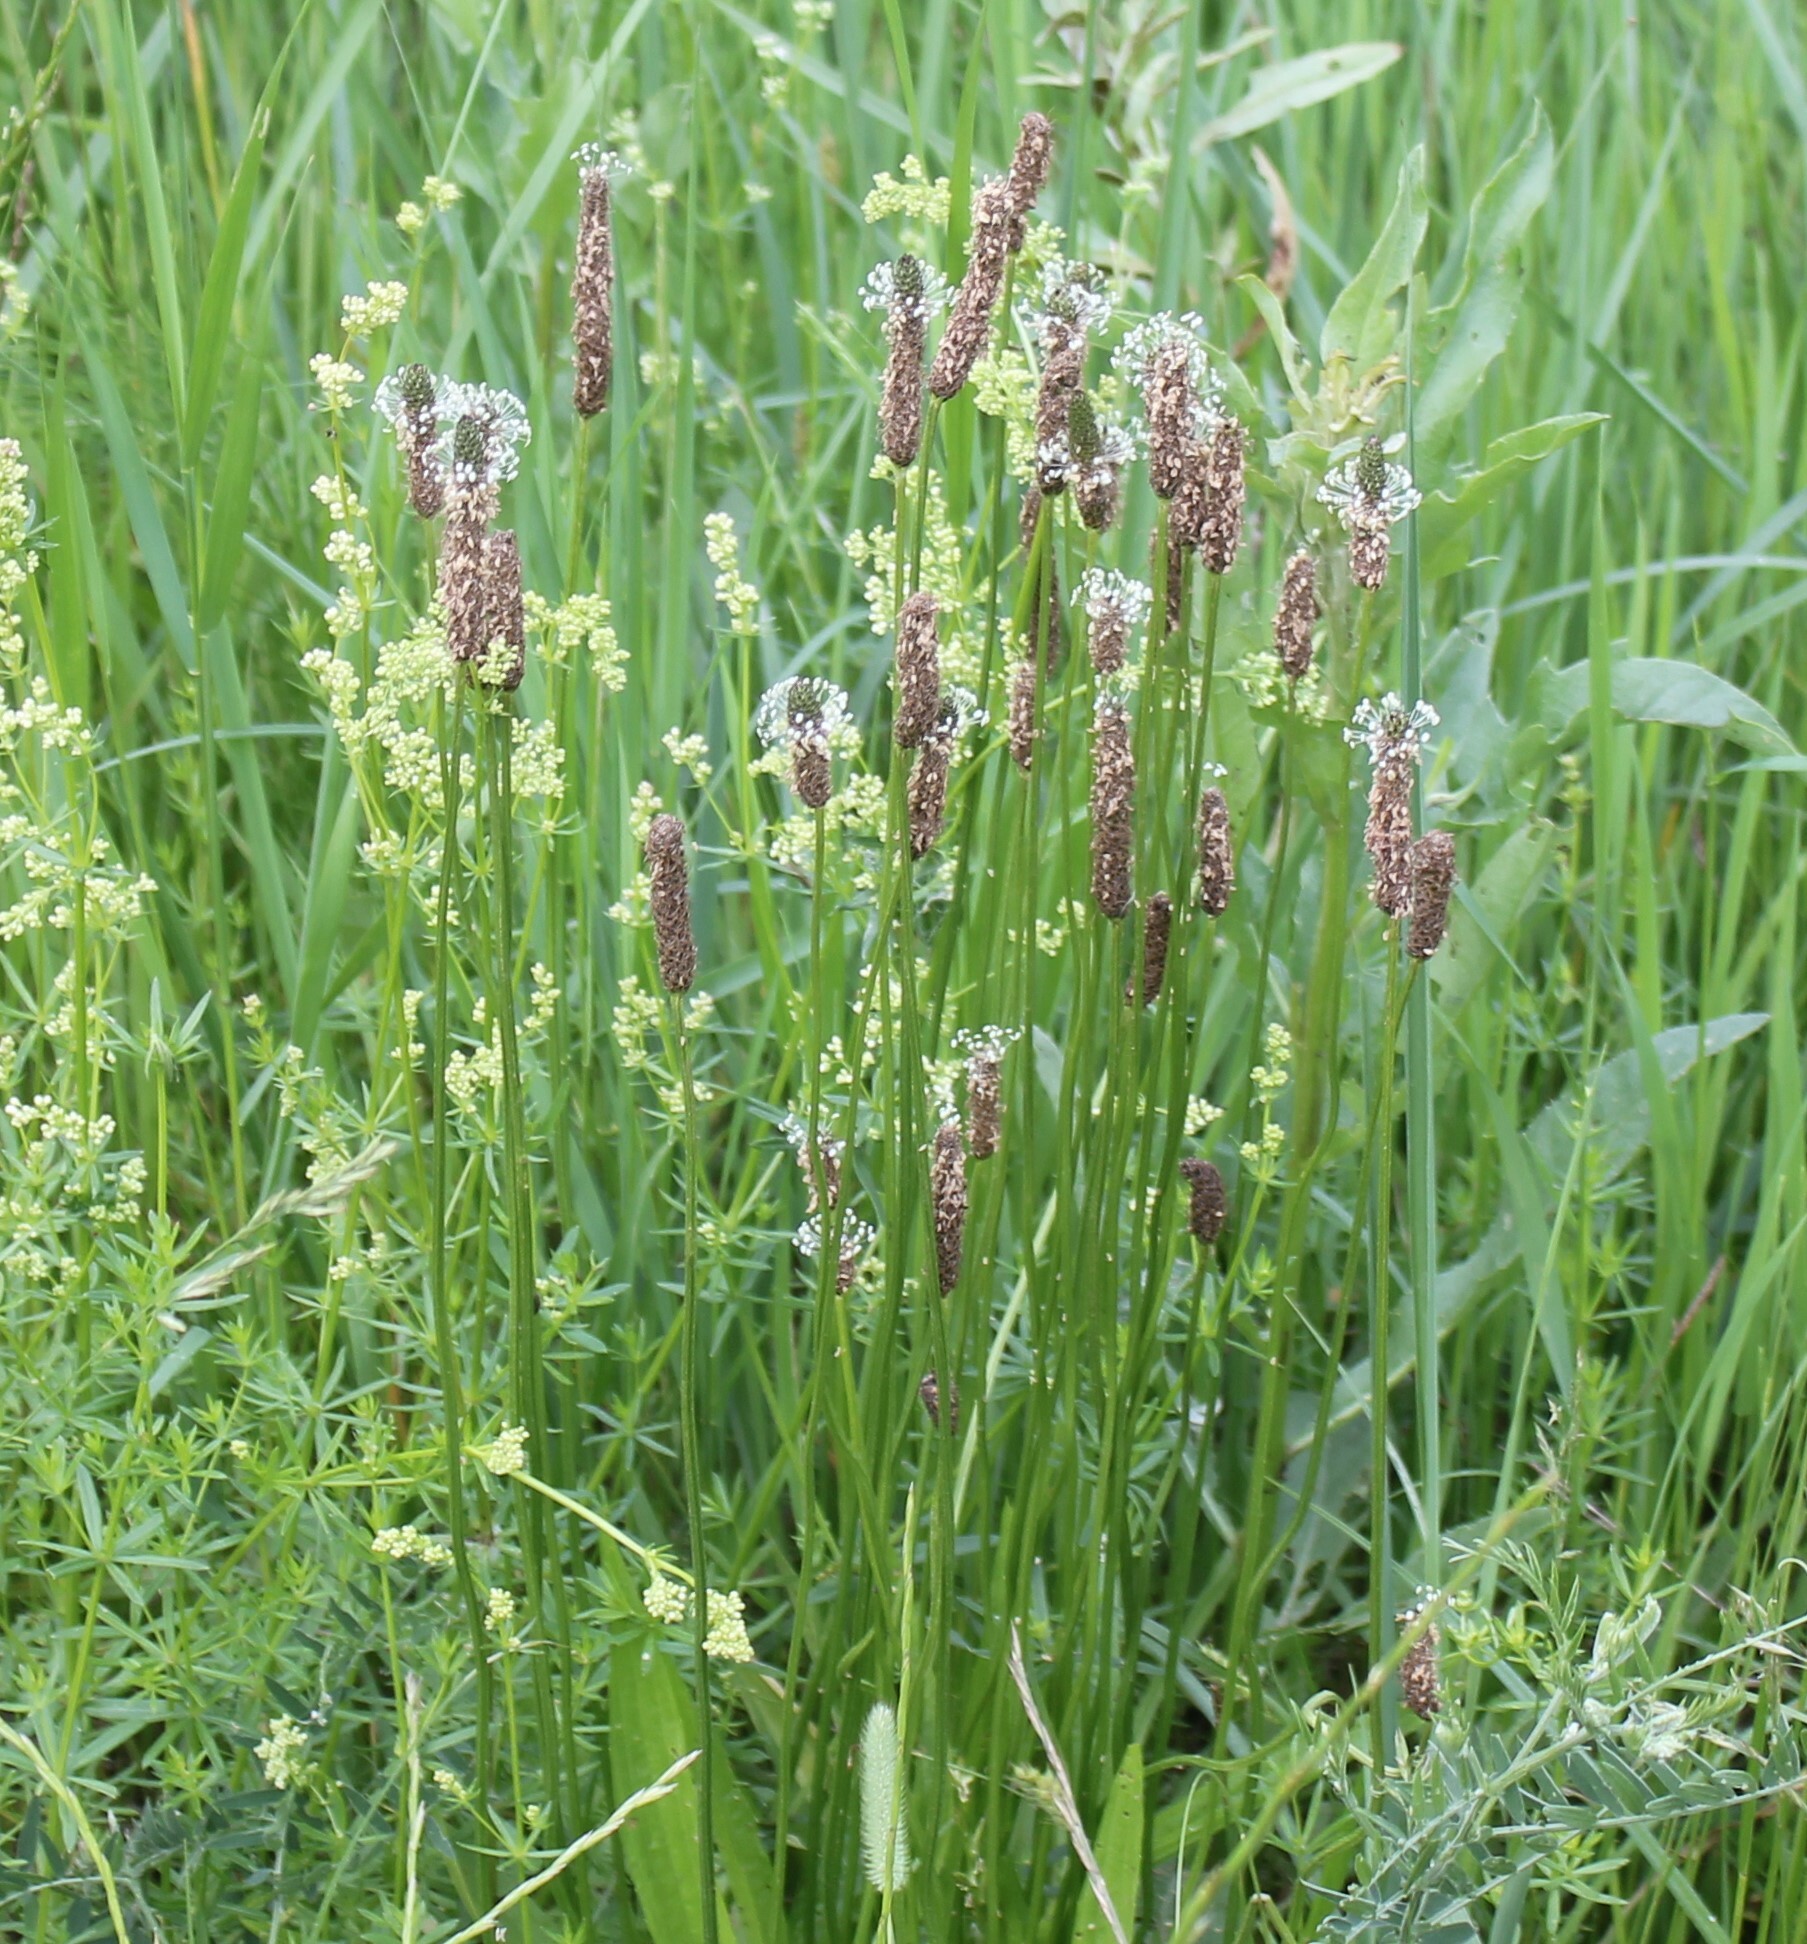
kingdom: Plantae
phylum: Tracheophyta
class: Magnoliopsida
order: Lamiales
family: Plantaginaceae
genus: Plantago
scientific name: Plantago lanceolata
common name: Ribwort plantain
